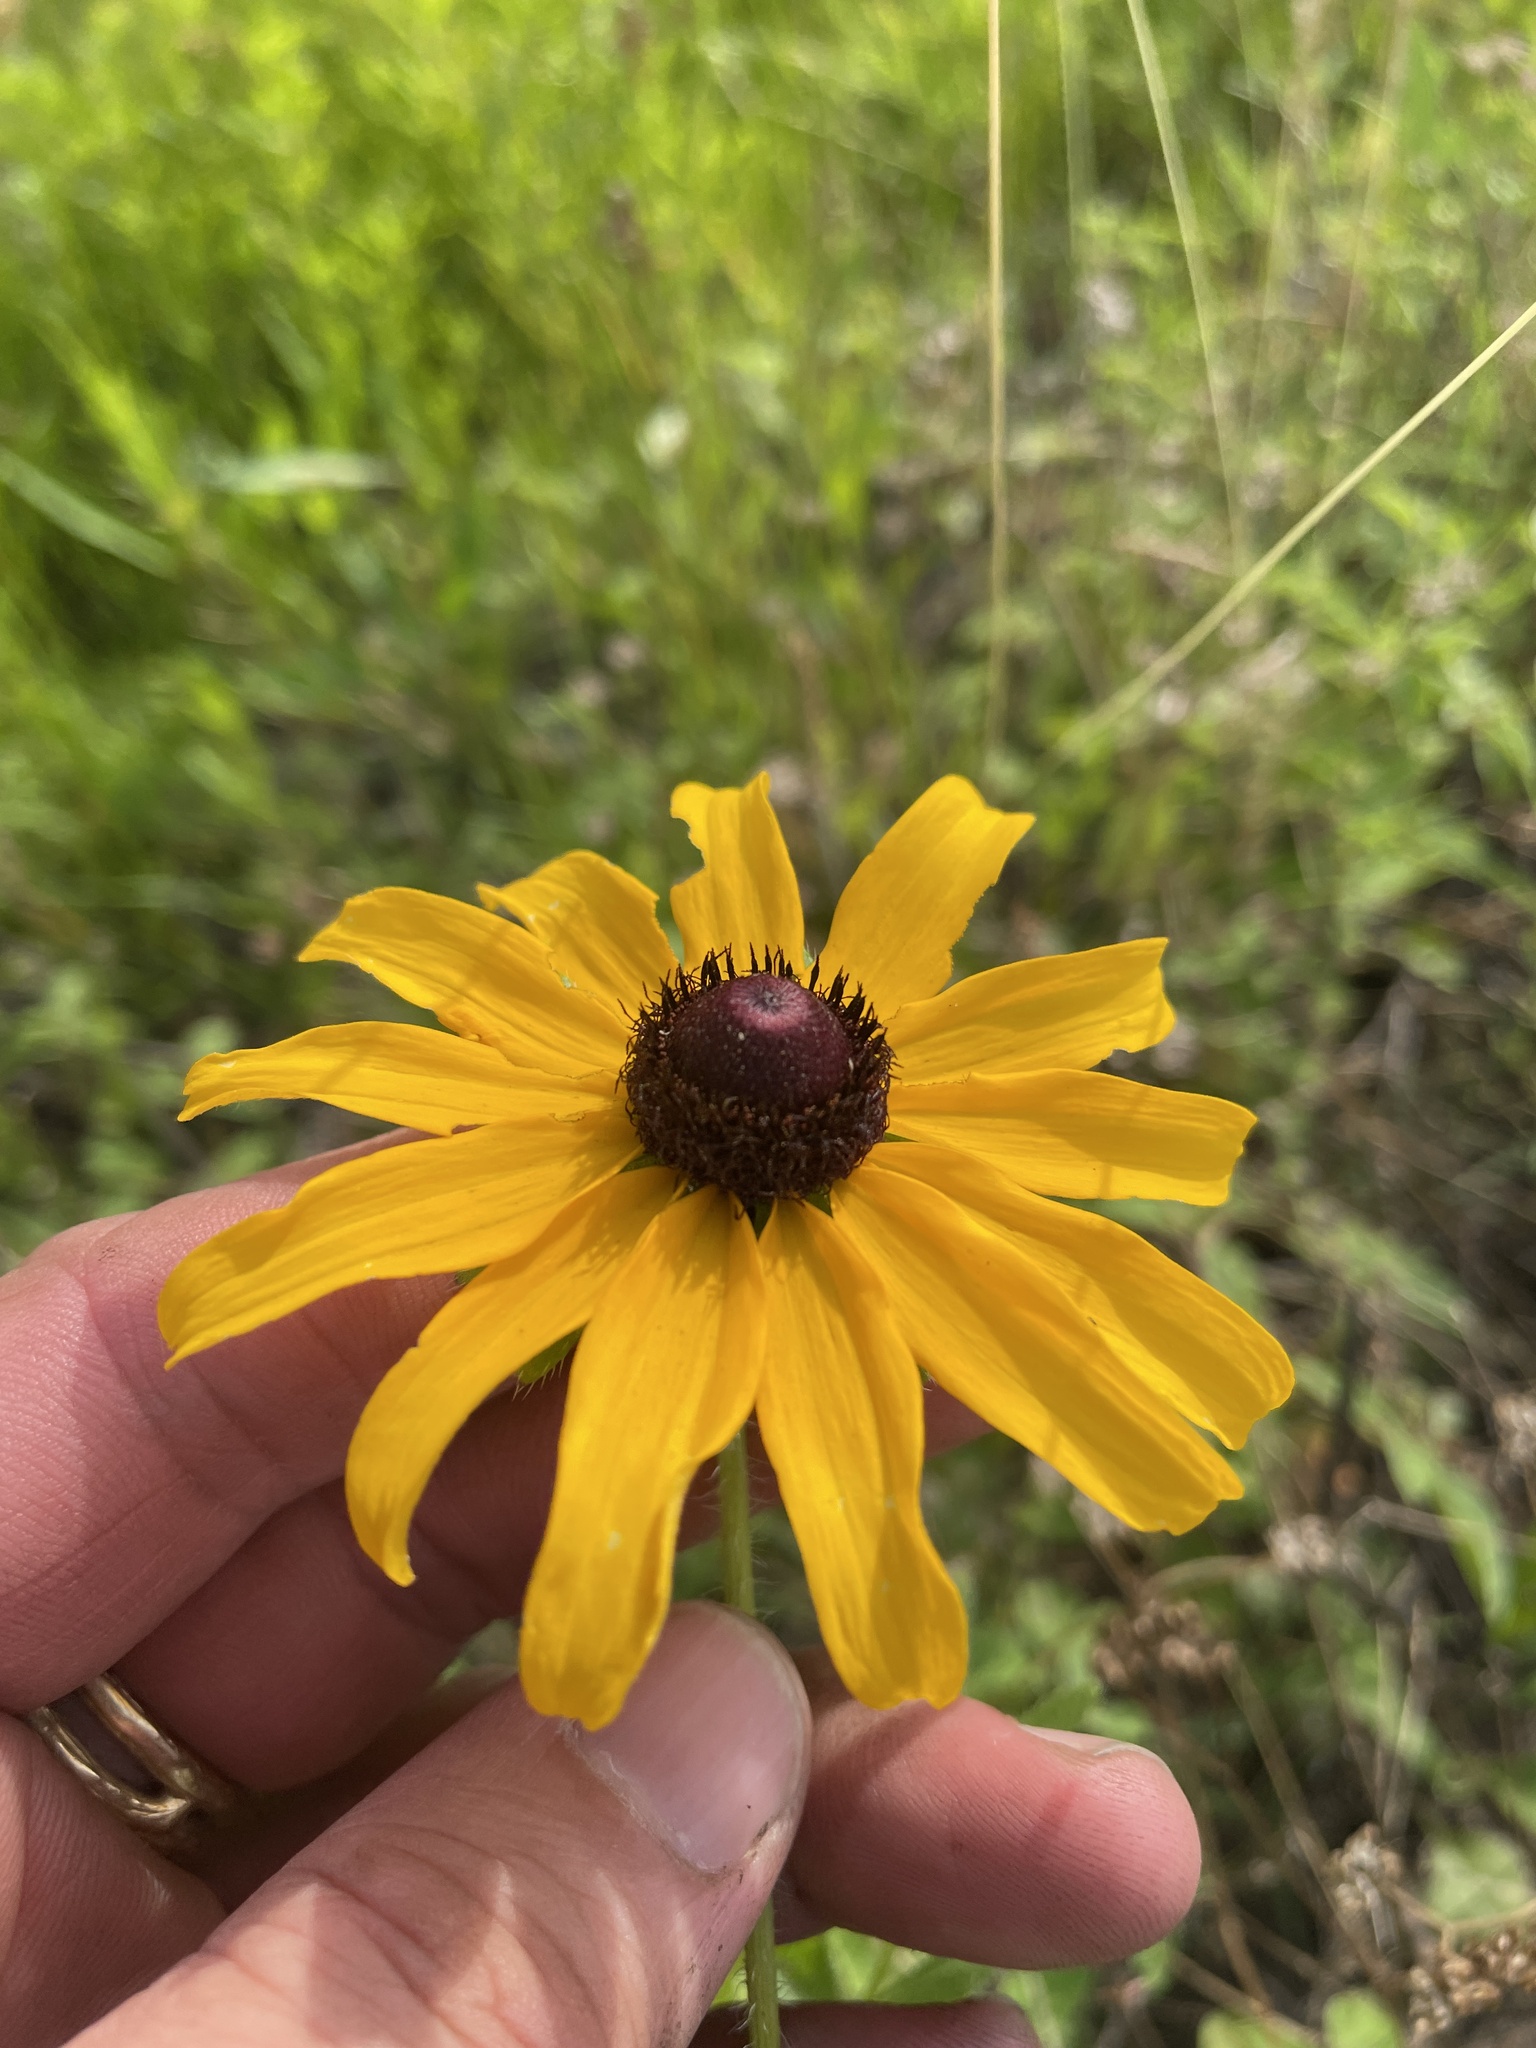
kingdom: Plantae
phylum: Tracheophyta
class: Magnoliopsida
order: Asterales
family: Asteraceae
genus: Rudbeckia
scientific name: Rudbeckia hirta
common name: Black-eyed-susan
